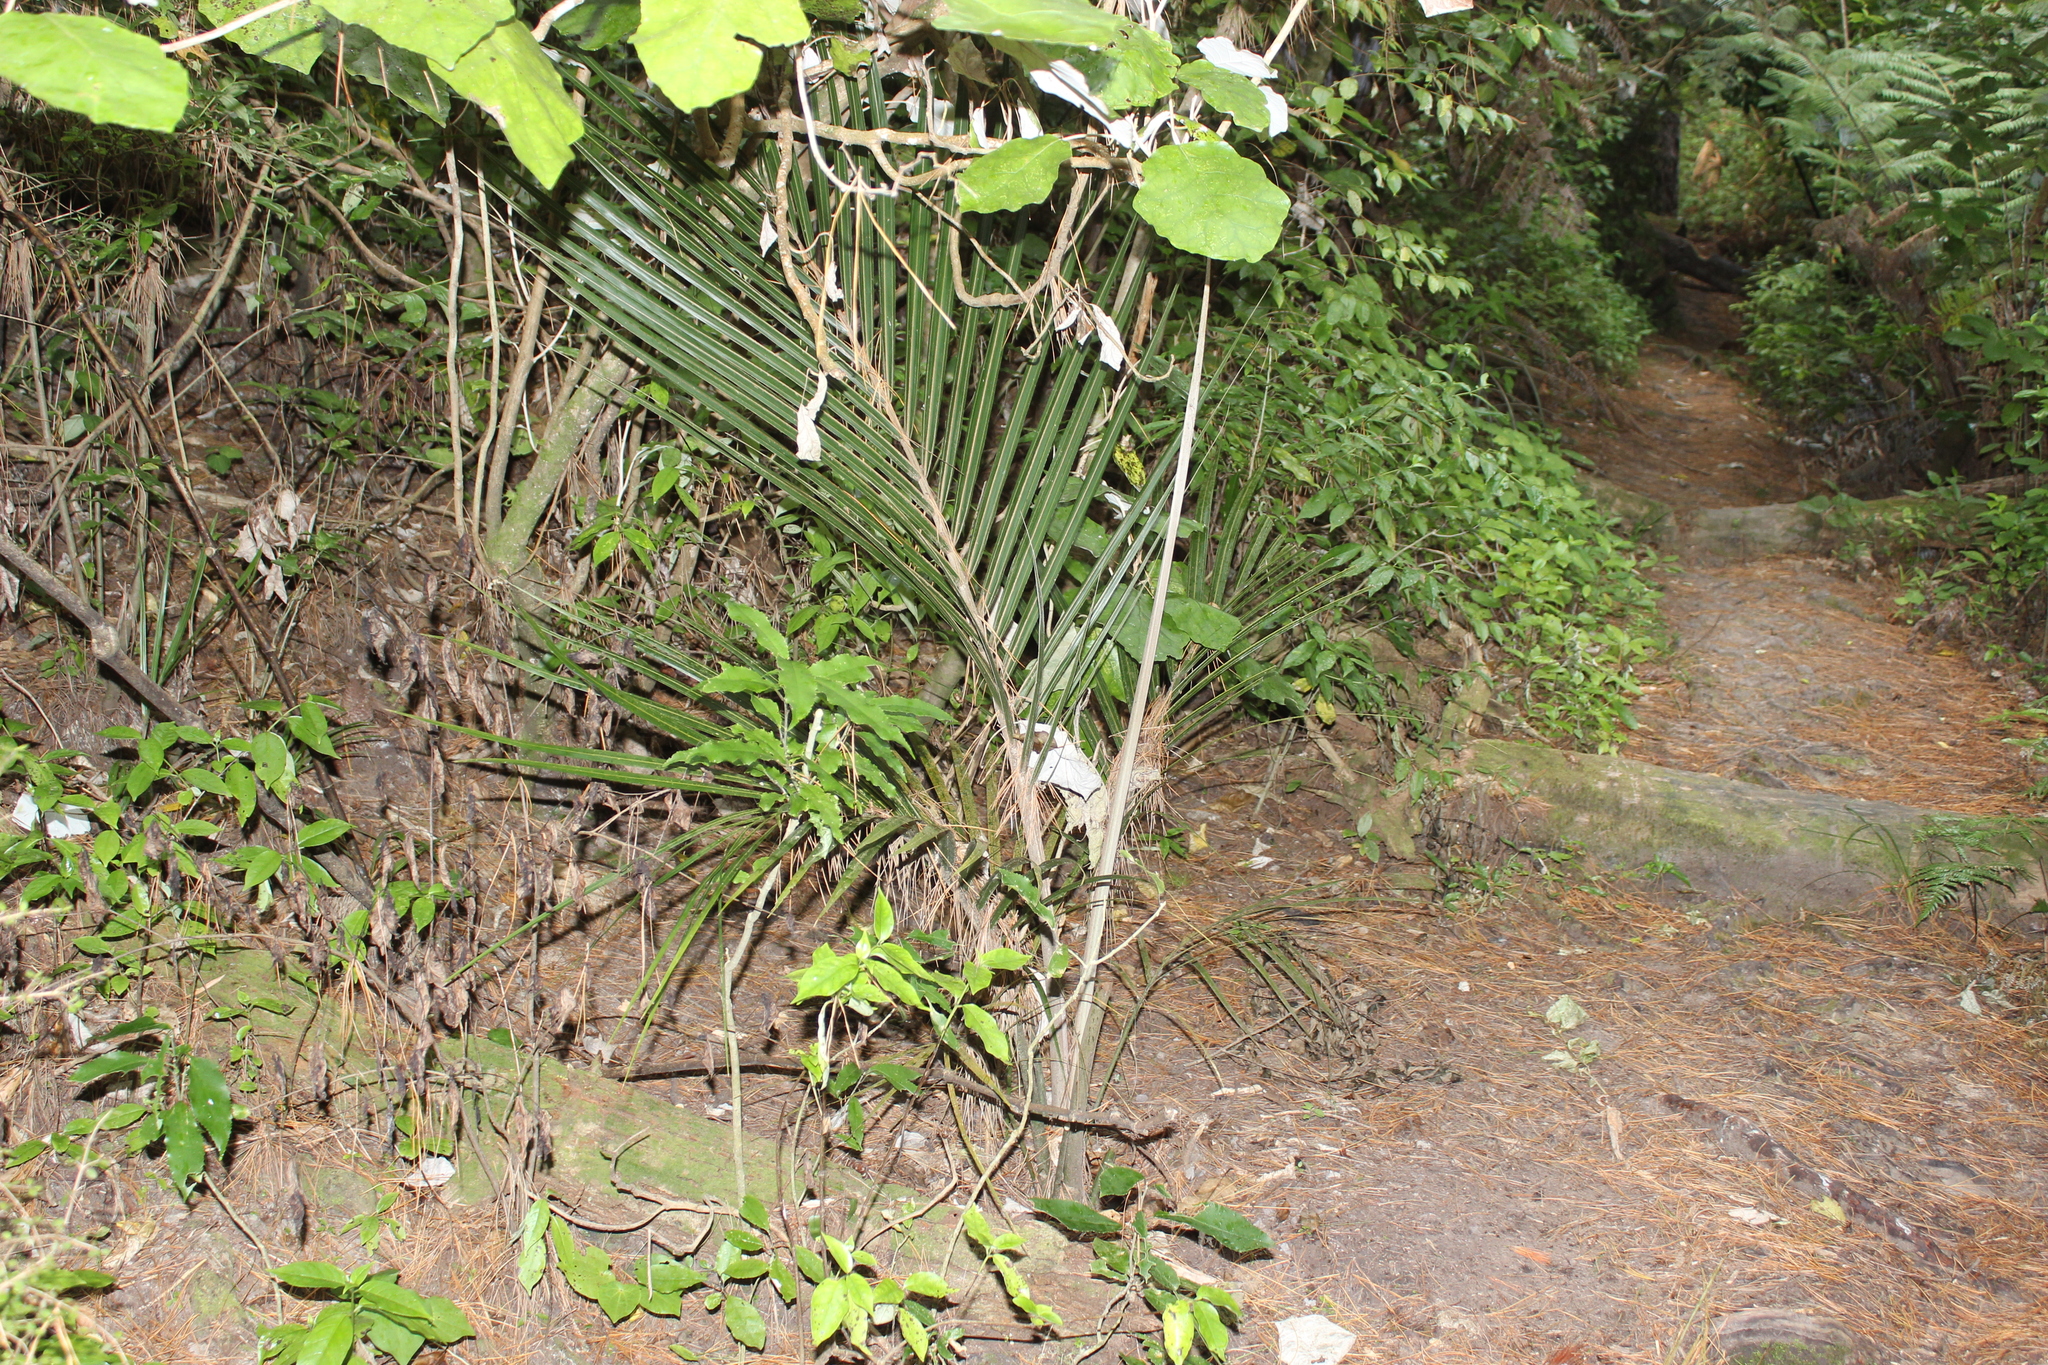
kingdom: Plantae
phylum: Tracheophyta
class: Liliopsida
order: Arecales
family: Arecaceae
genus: Rhopalostylis
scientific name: Rhopalostylis sapida
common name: Feather-duster palm
